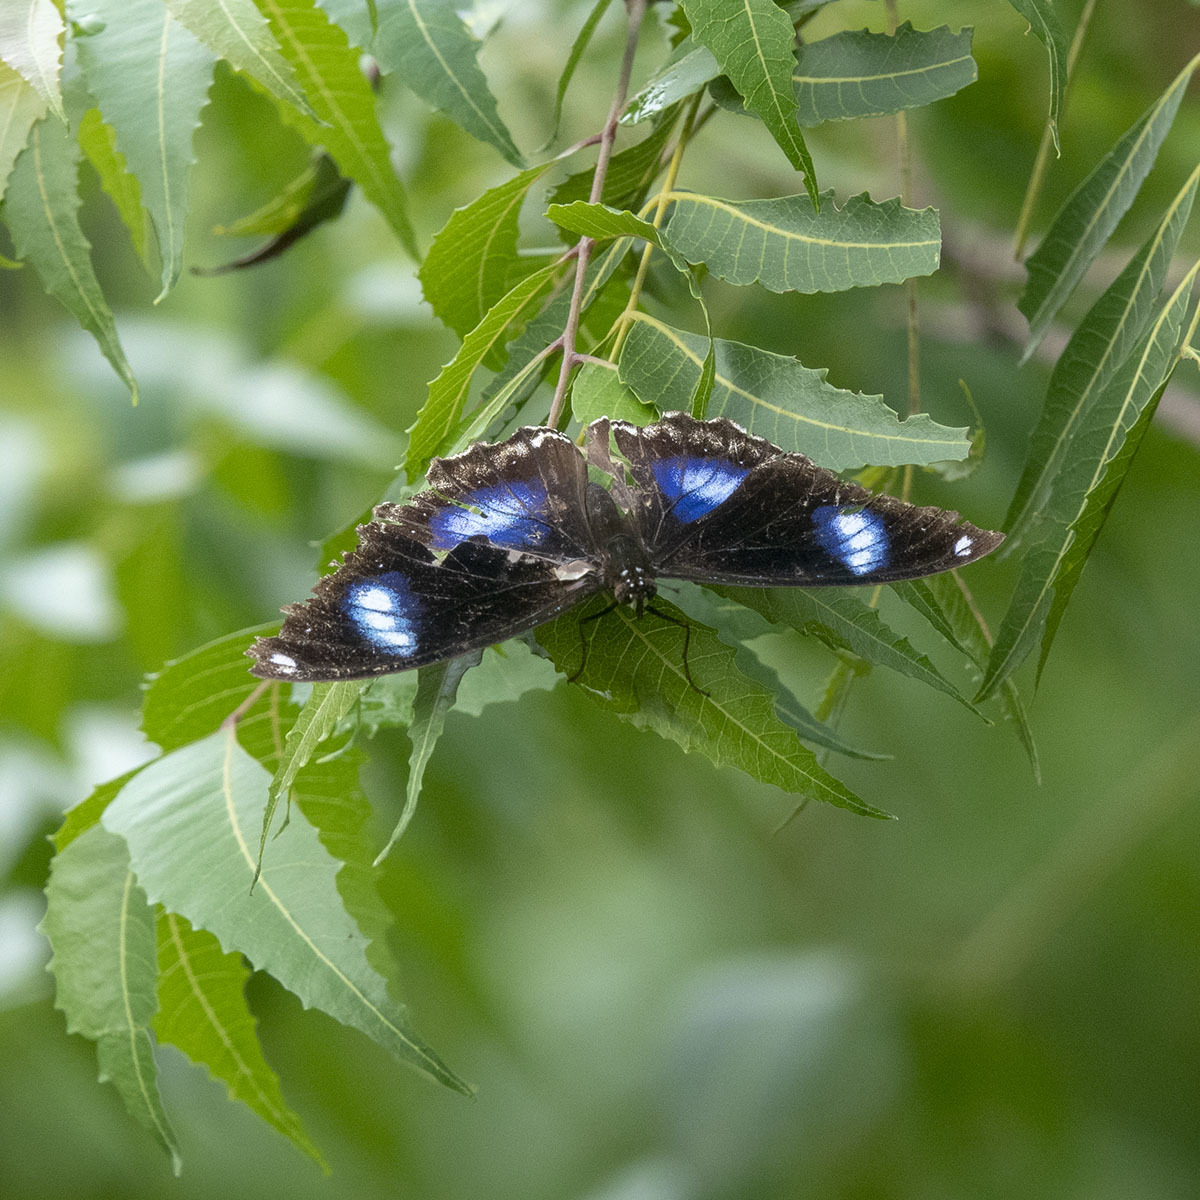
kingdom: Animalia
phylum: Arthropoda
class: Insecta
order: Lepidoptera
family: Nymphalidae
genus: Hypolimnas
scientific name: Hypolimnas bolina
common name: Great eggfly
